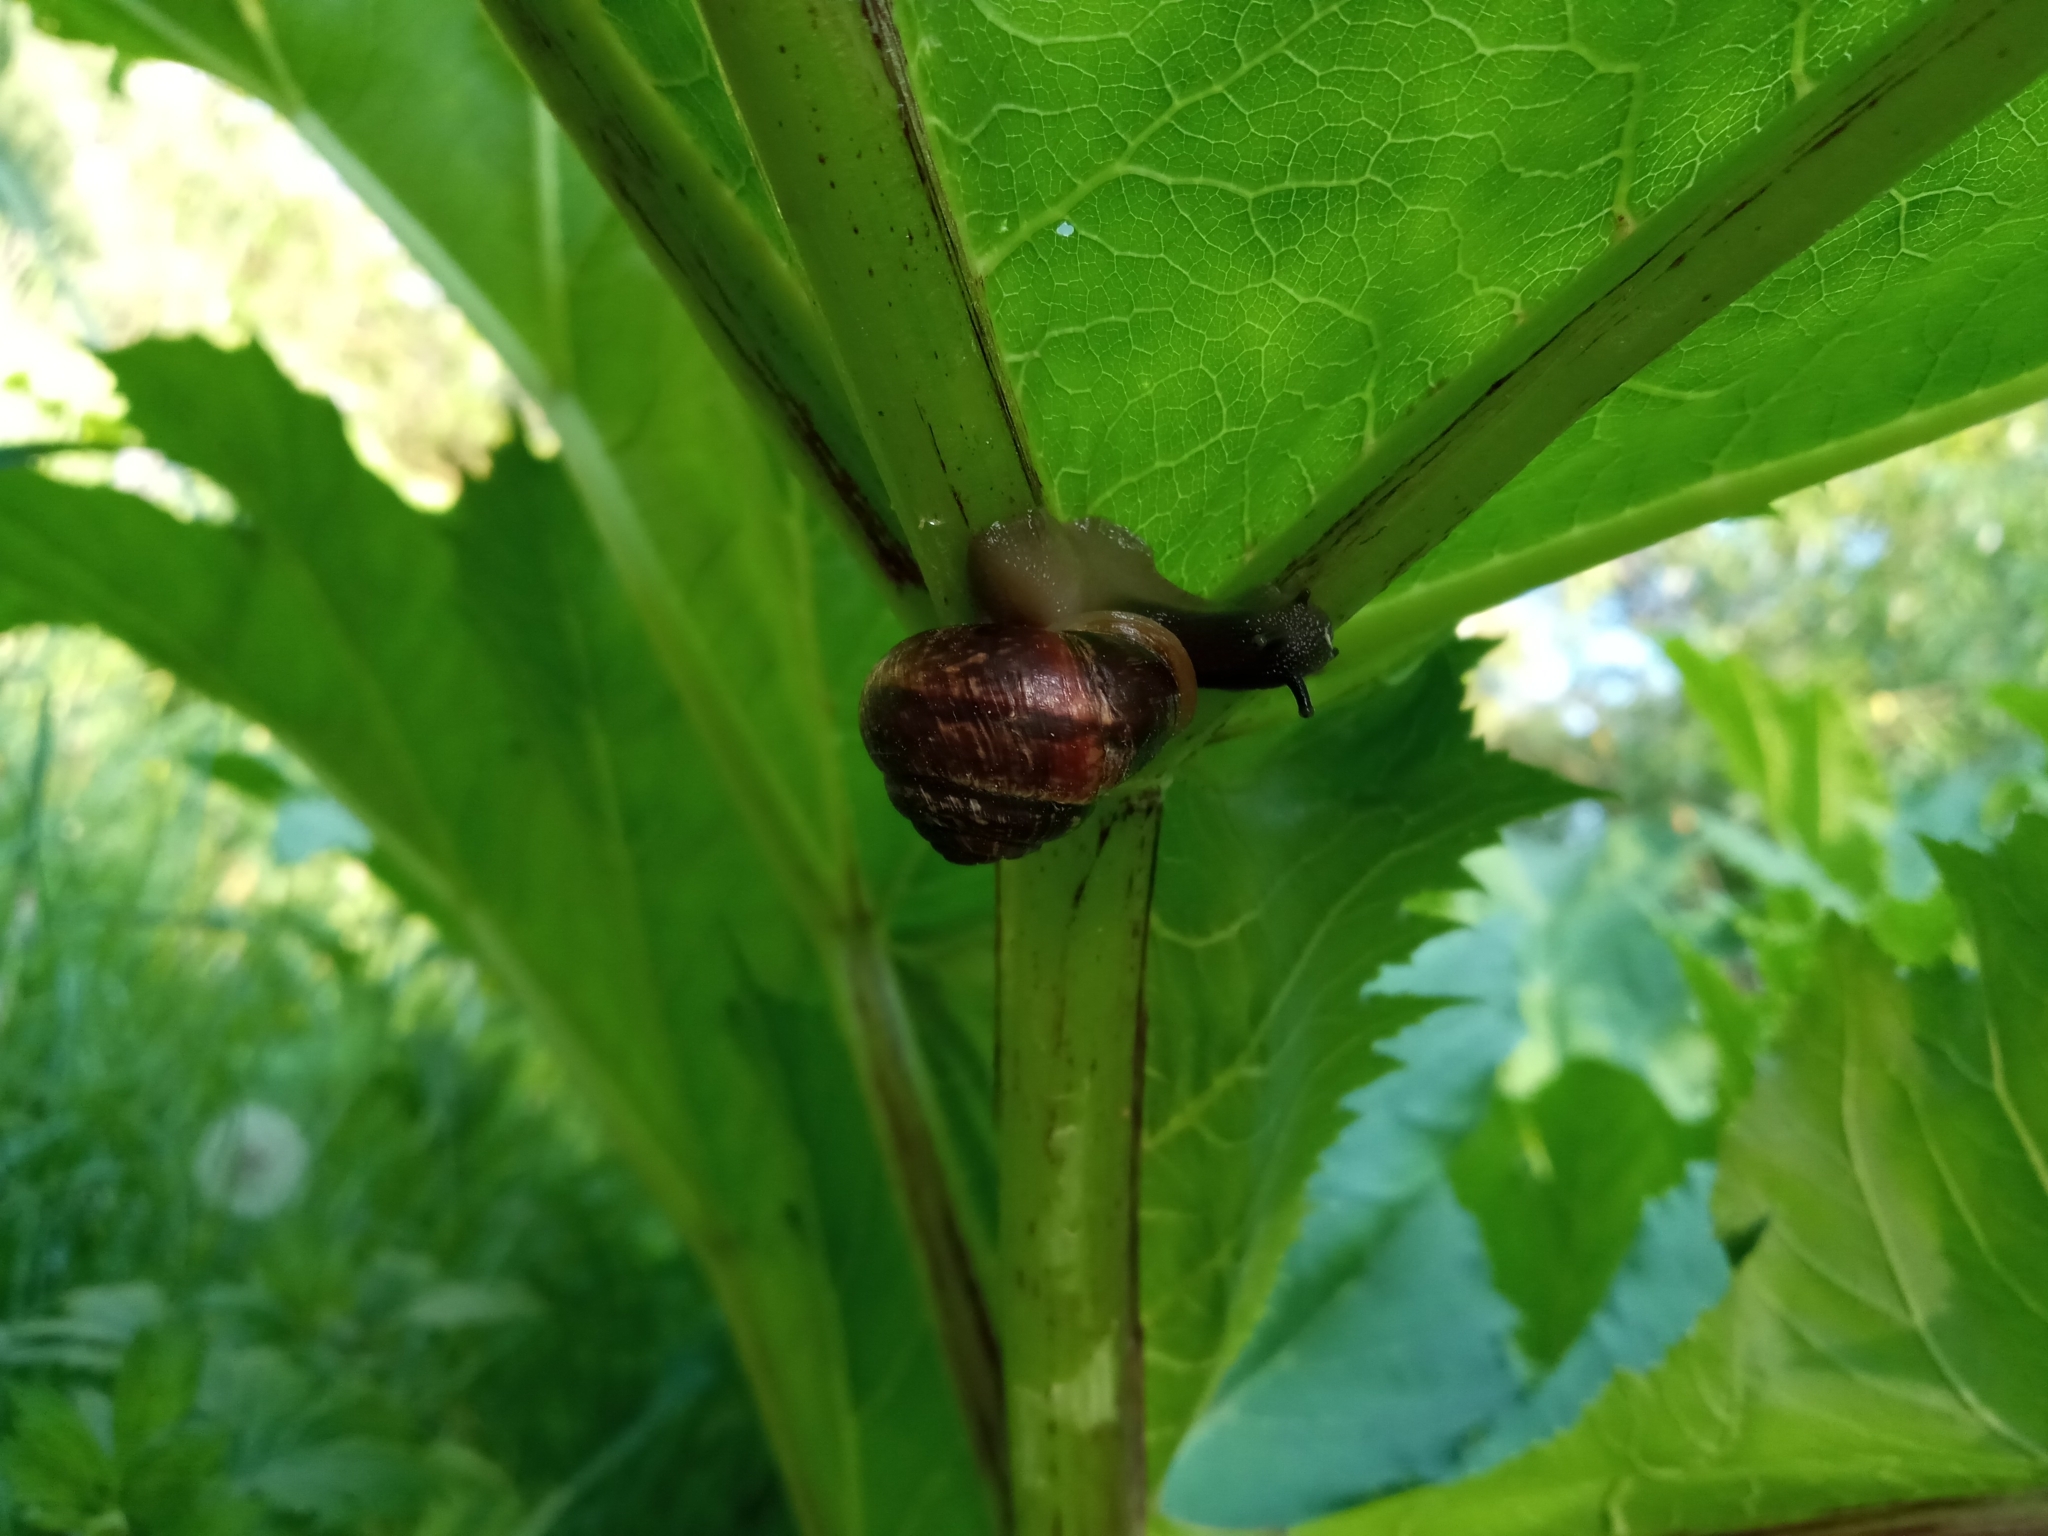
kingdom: Animalia
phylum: Mollusca
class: Gastropoda
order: Stylommatophora
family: Helicidae
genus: Arianta
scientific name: Arianta arbustorum
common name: Copse snail
